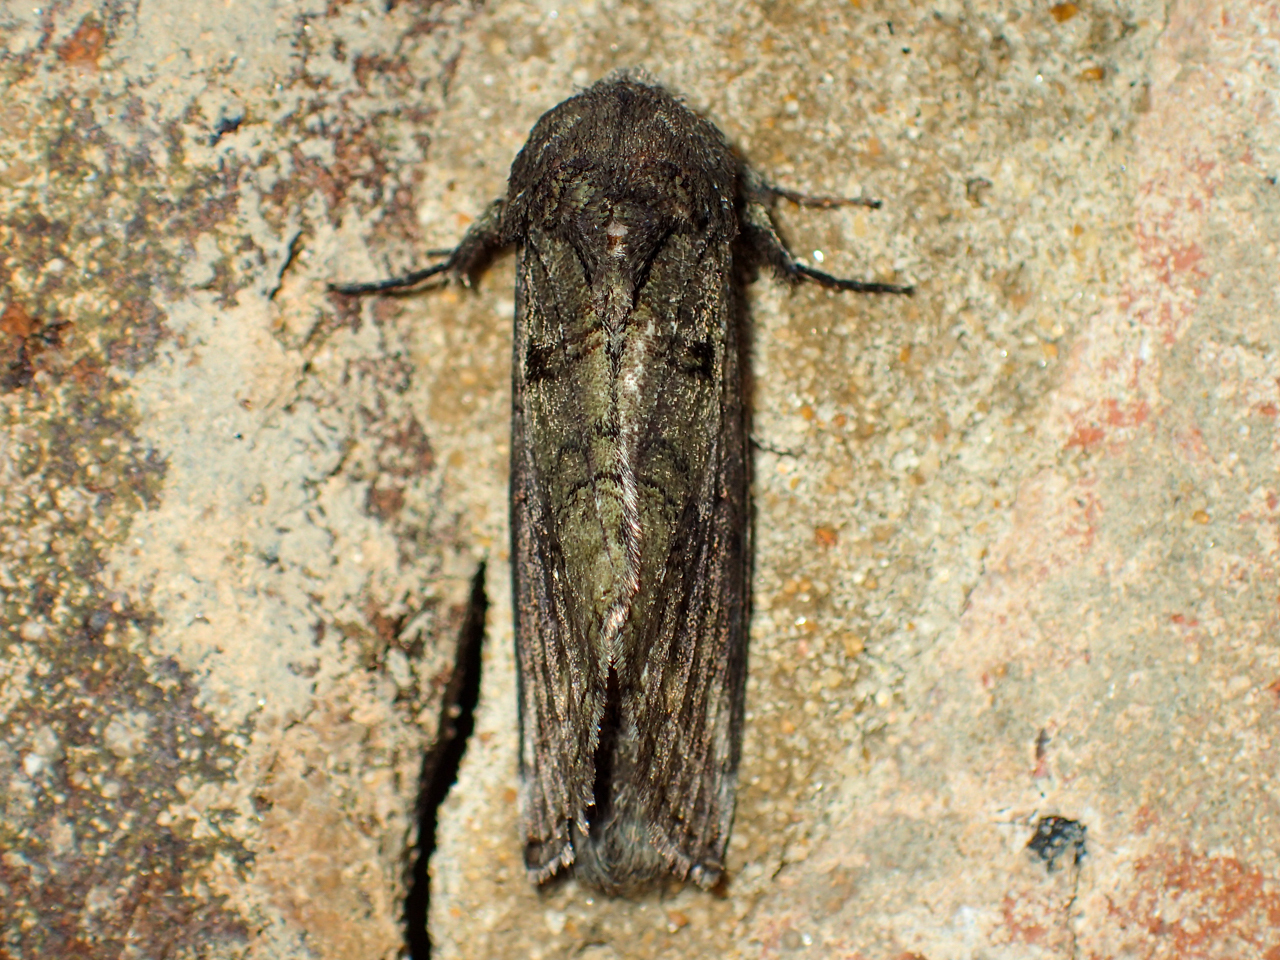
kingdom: Animalia
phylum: Arthropoda
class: Insecta
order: Lepidoptera
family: Notodontidae
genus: Heterocampa
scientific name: Heterocampa obliqua
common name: Oblique heterocampa
